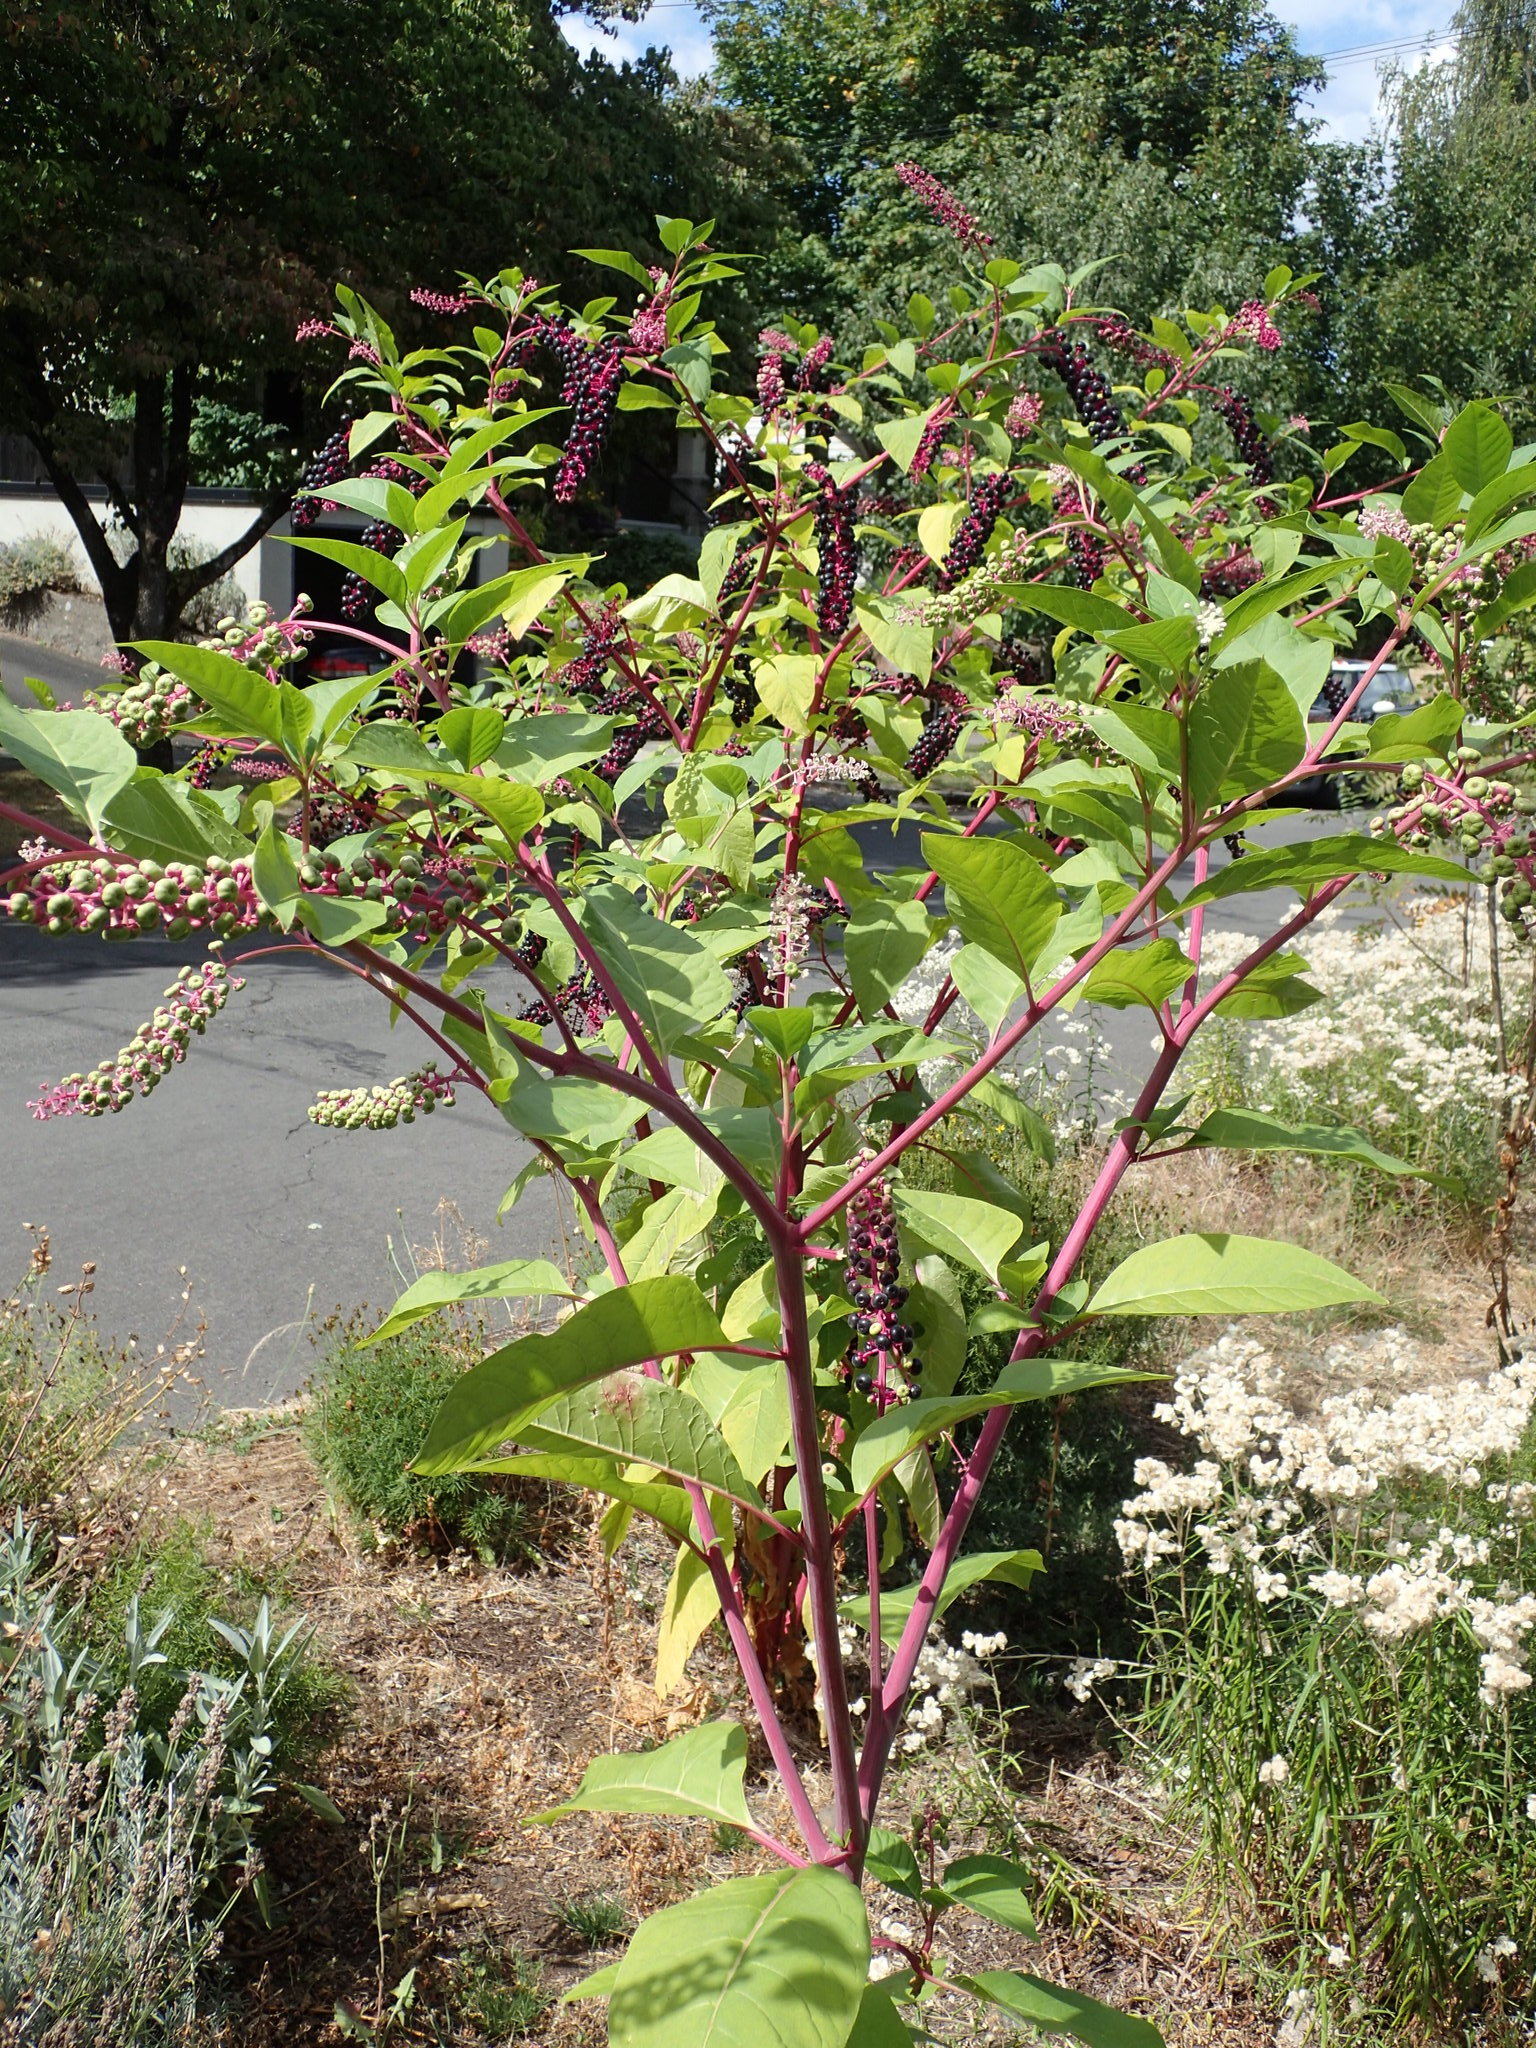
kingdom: Plantae
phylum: Tracheophyta
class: Magnoliopsida
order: Caryophyllales
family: Phytolaccaceae
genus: Phytolacca
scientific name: Phytolacca americana
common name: American pokeweed
